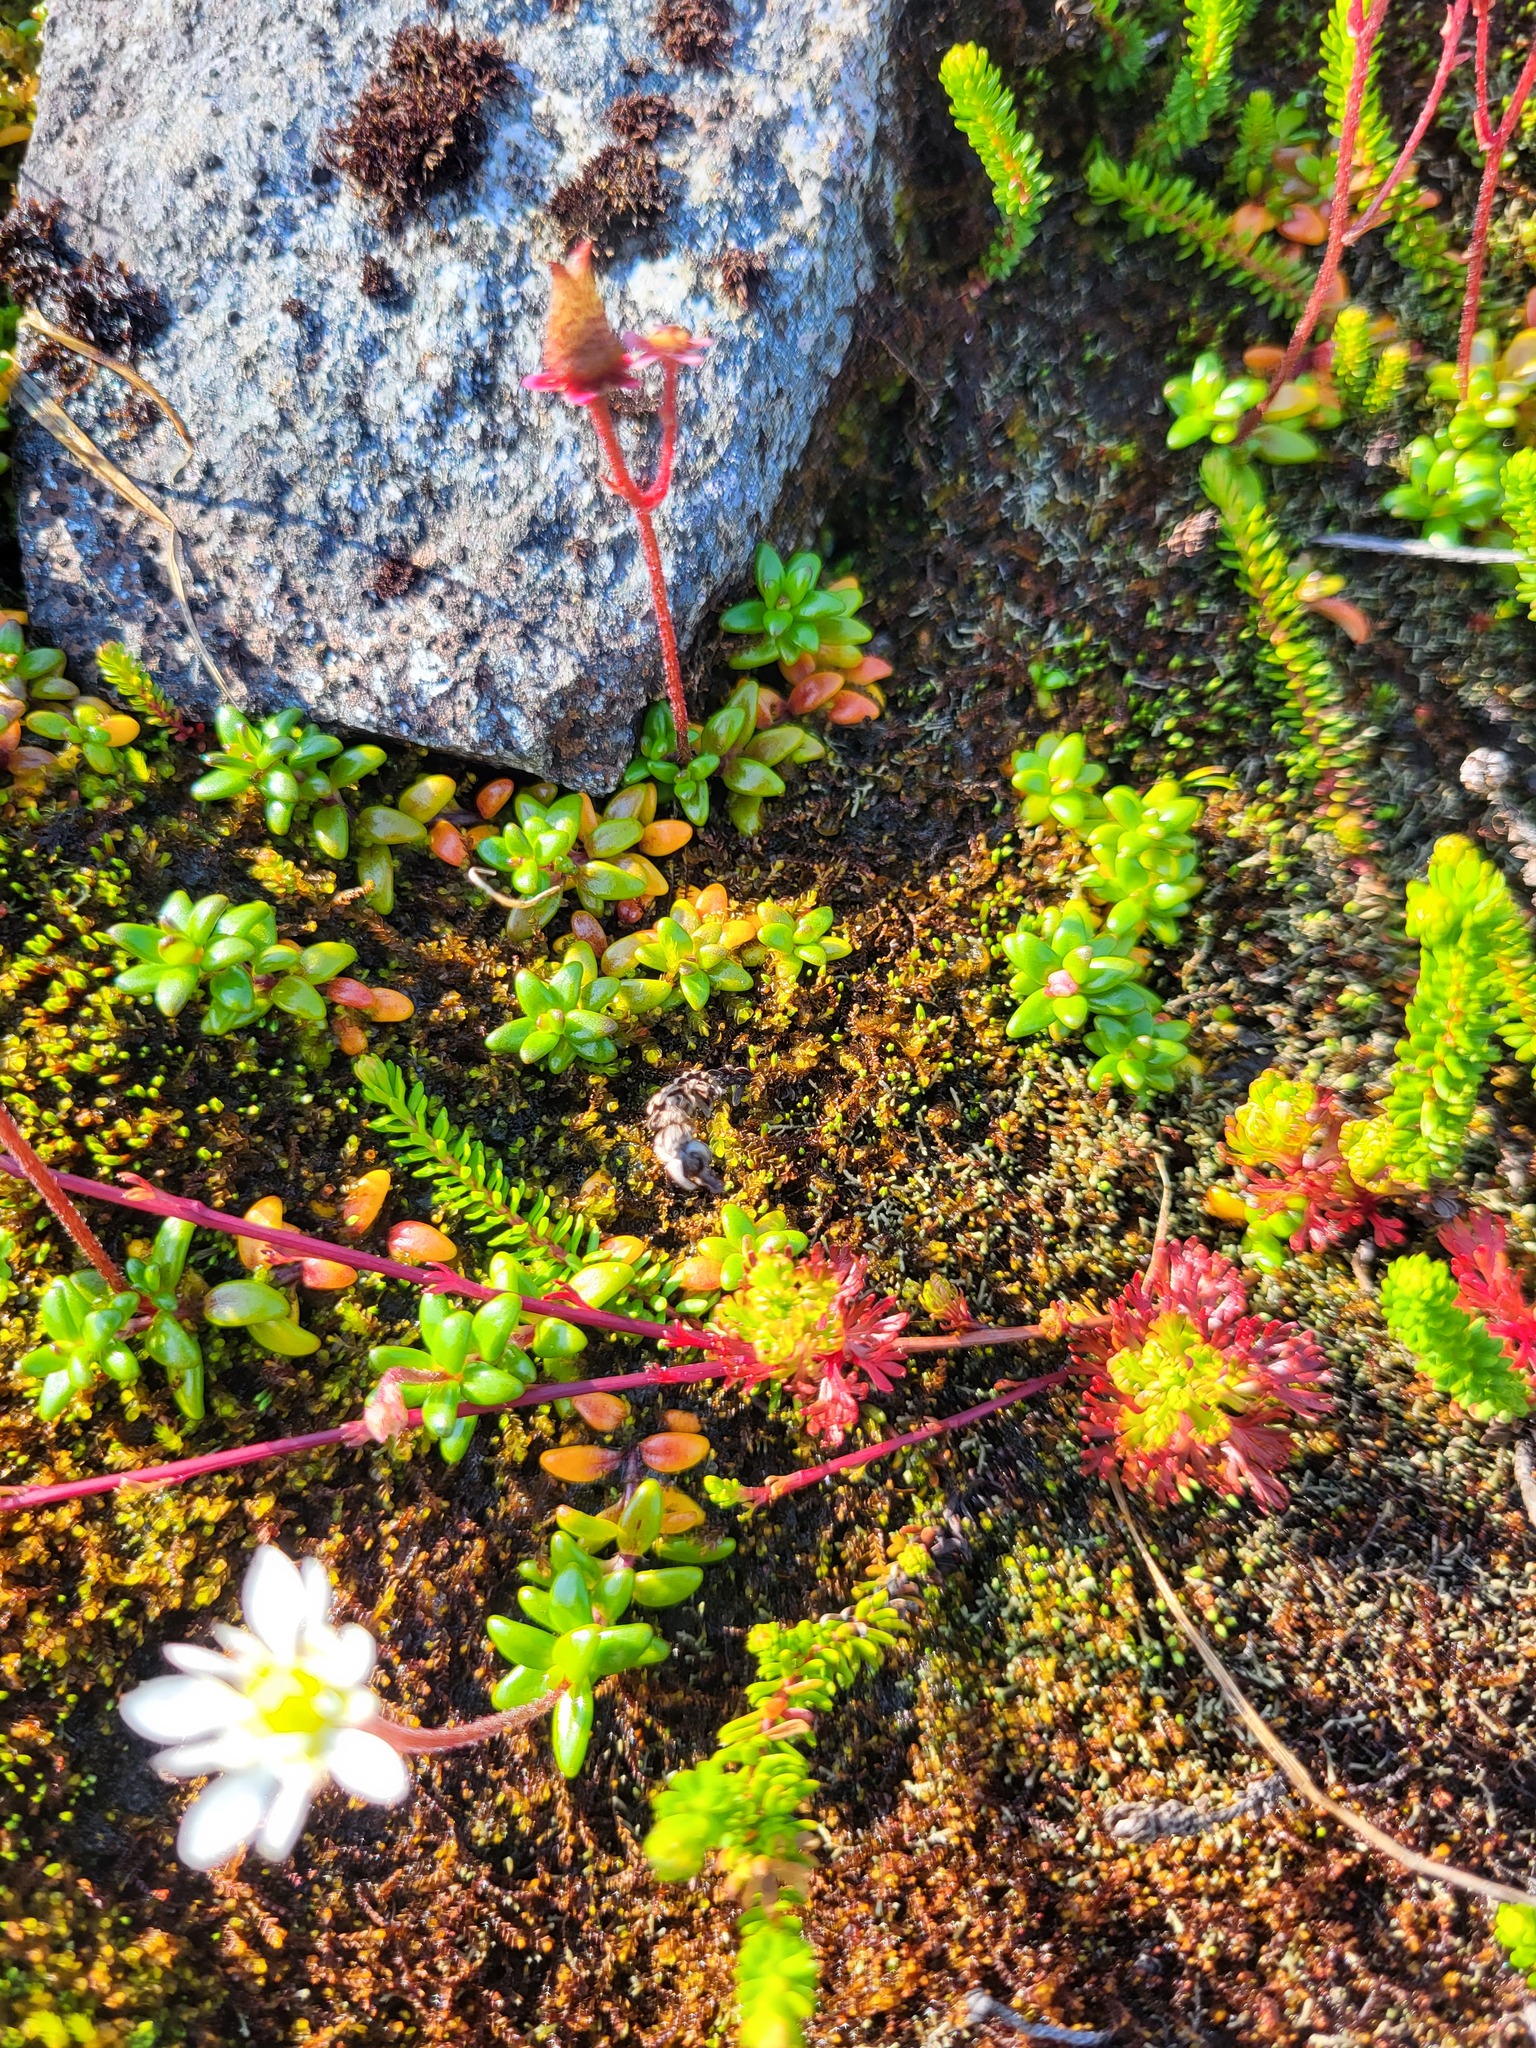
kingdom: Plantae
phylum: Tracheophyta
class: Magnoliopsida
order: Saxifragales
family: Saxifragaceae
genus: Micranthes
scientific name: Micranthes tolmiei
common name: Tolmie's saxifrage
